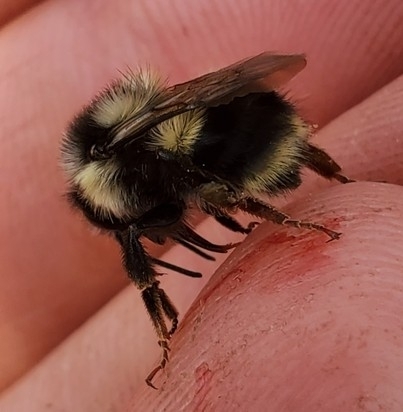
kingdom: Animalia
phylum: Arthropoda
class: Insecta
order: Hymenoptera
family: Apidae
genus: Bombus
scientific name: Bombus vancouverensis
